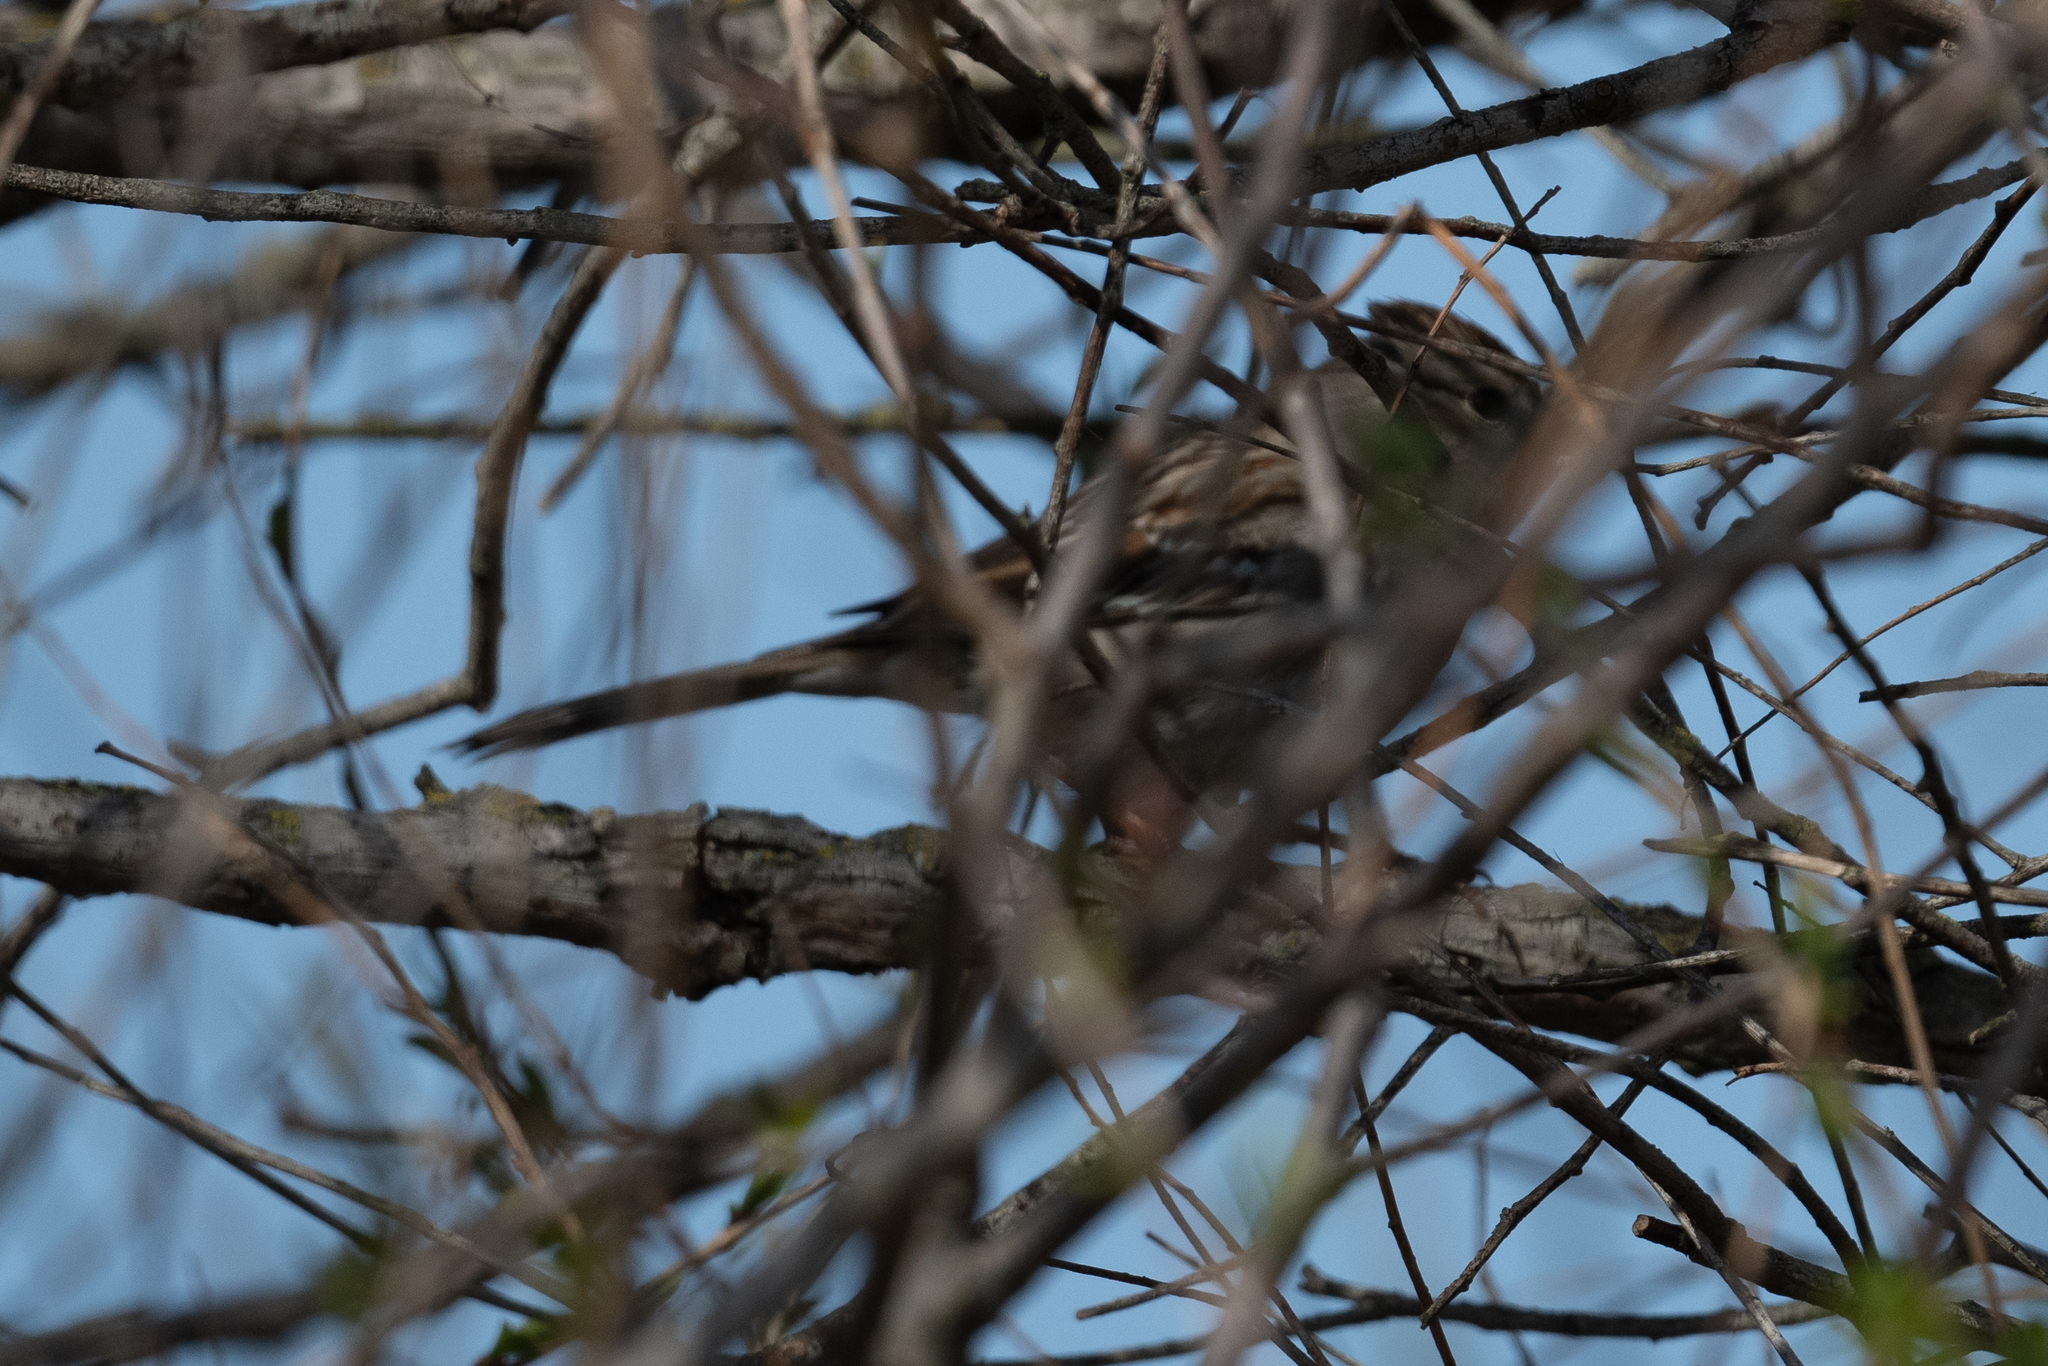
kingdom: Animalia
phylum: Chordata
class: Aves
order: Passeriformes
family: Passerellidae
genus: Zonotrichia
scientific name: Zonotrichia atricapilla
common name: Golden-crowned sparrow
